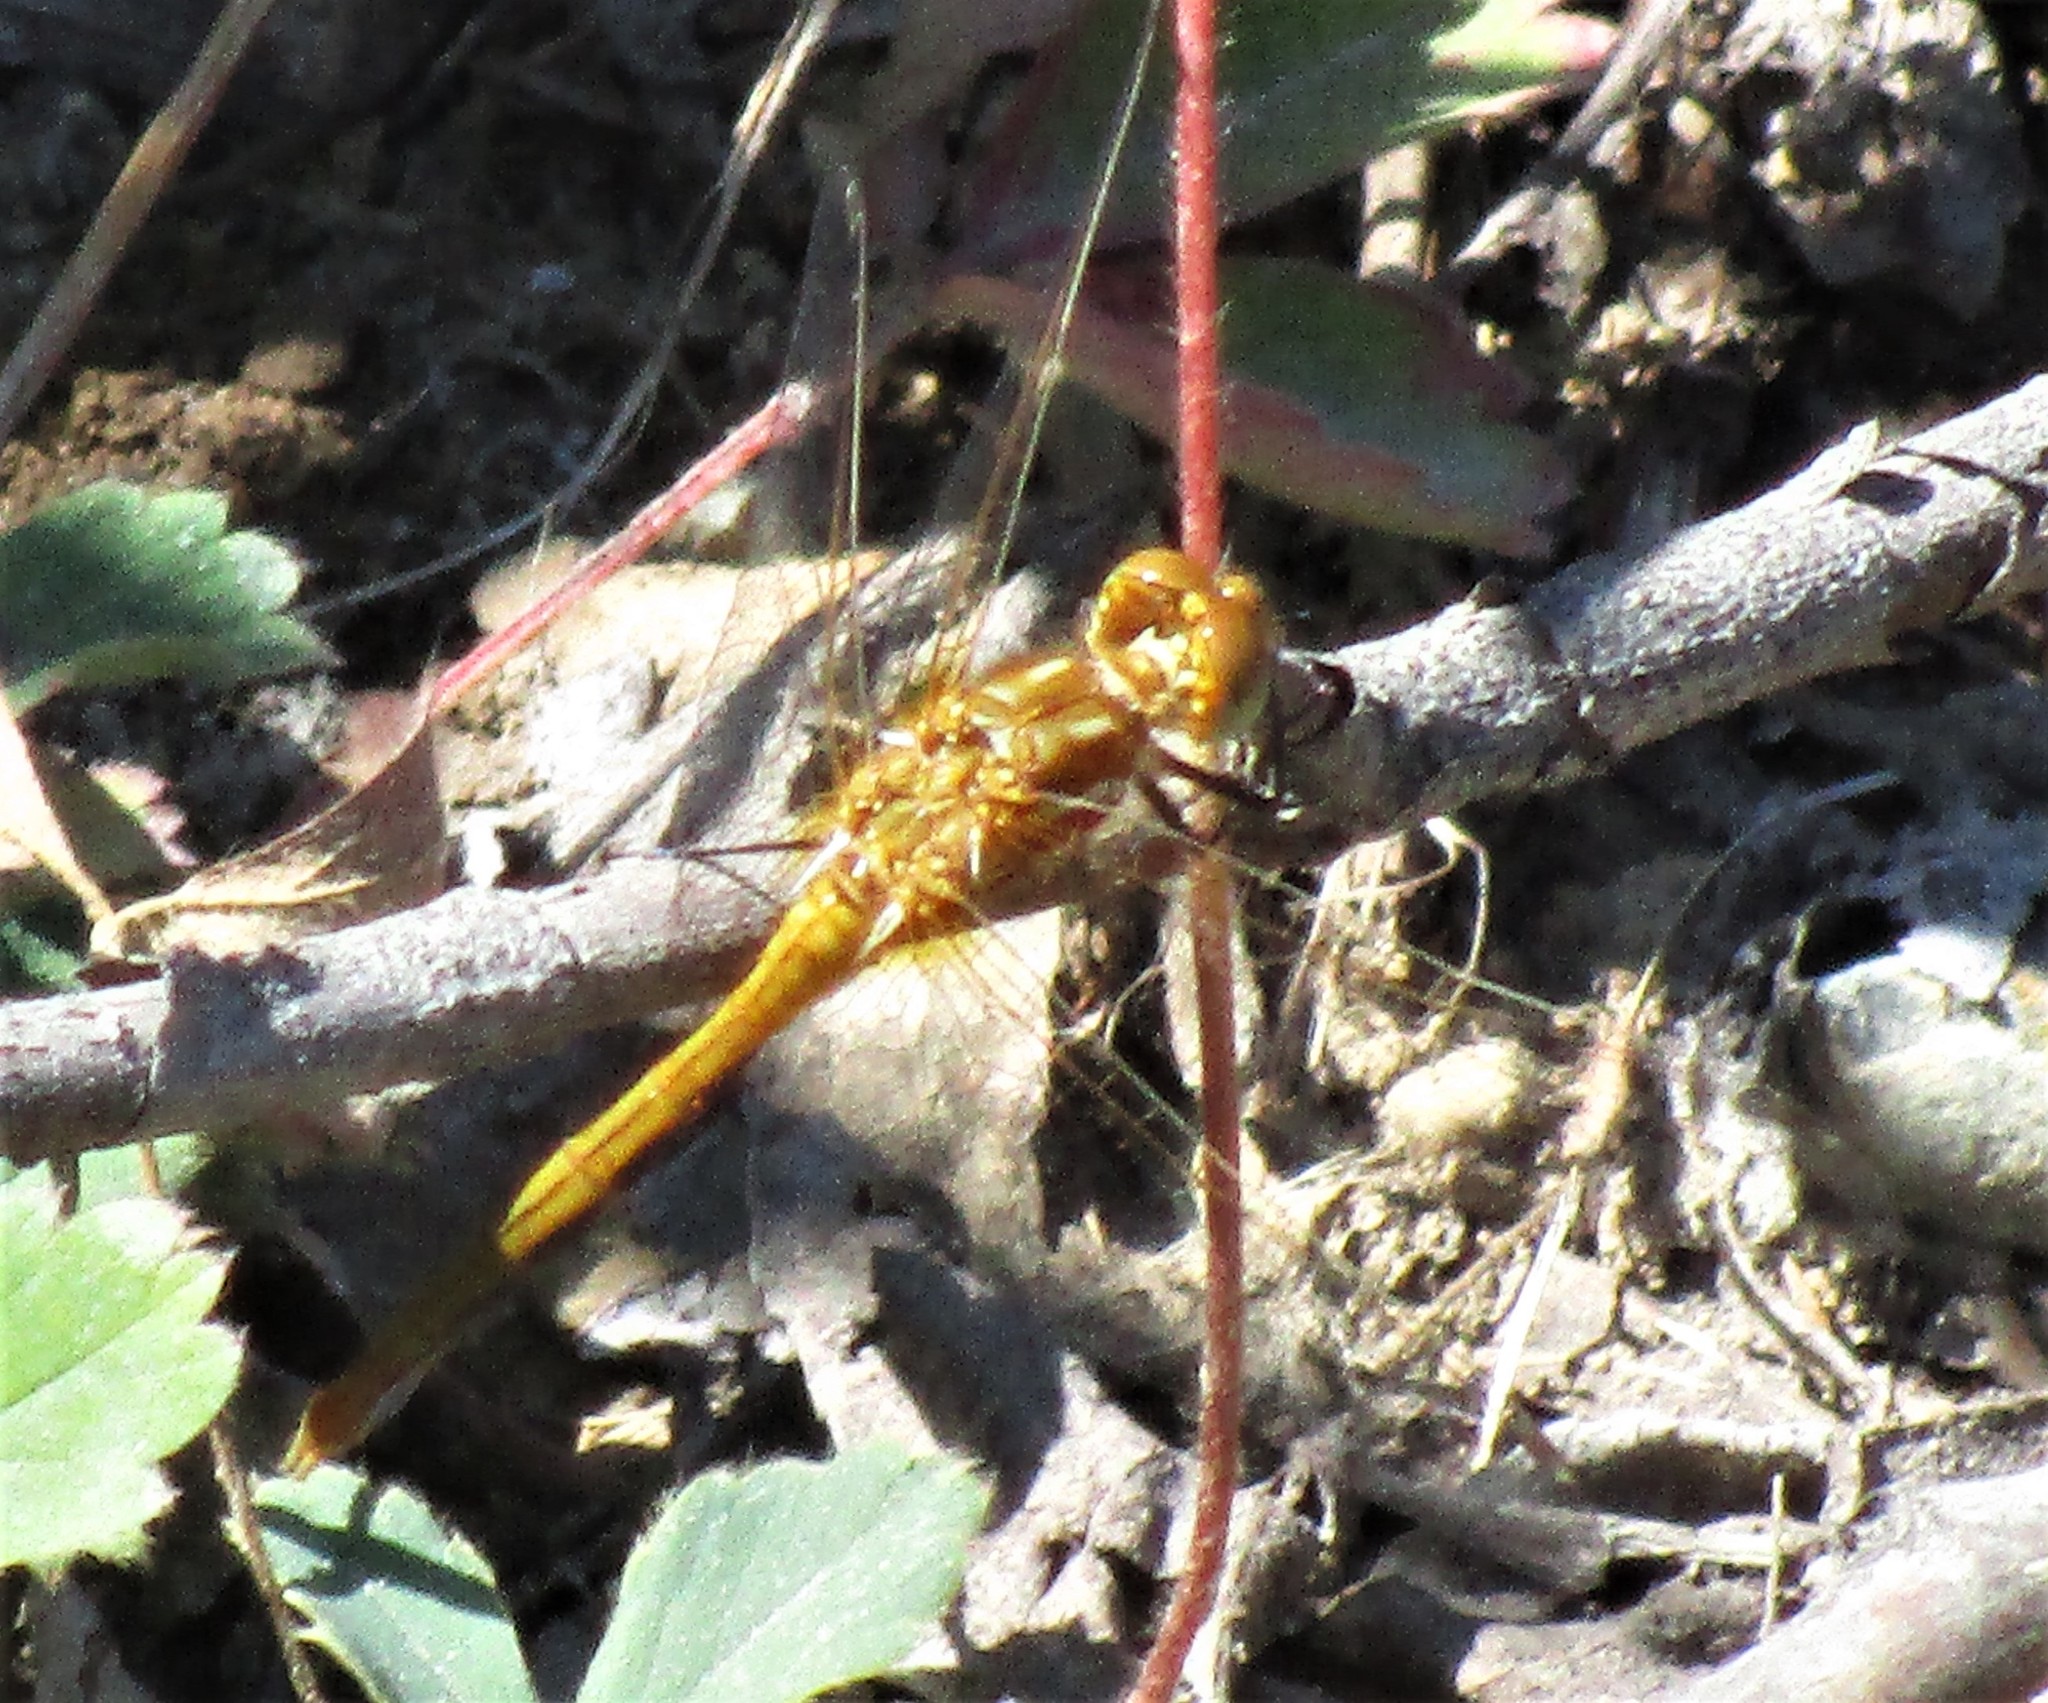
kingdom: Animalia
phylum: Arthropoda
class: Insecta
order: Odonata
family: Libellulidae
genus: Sympetrum
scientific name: Sympetrum pallipes
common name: Striped meadowhawk
